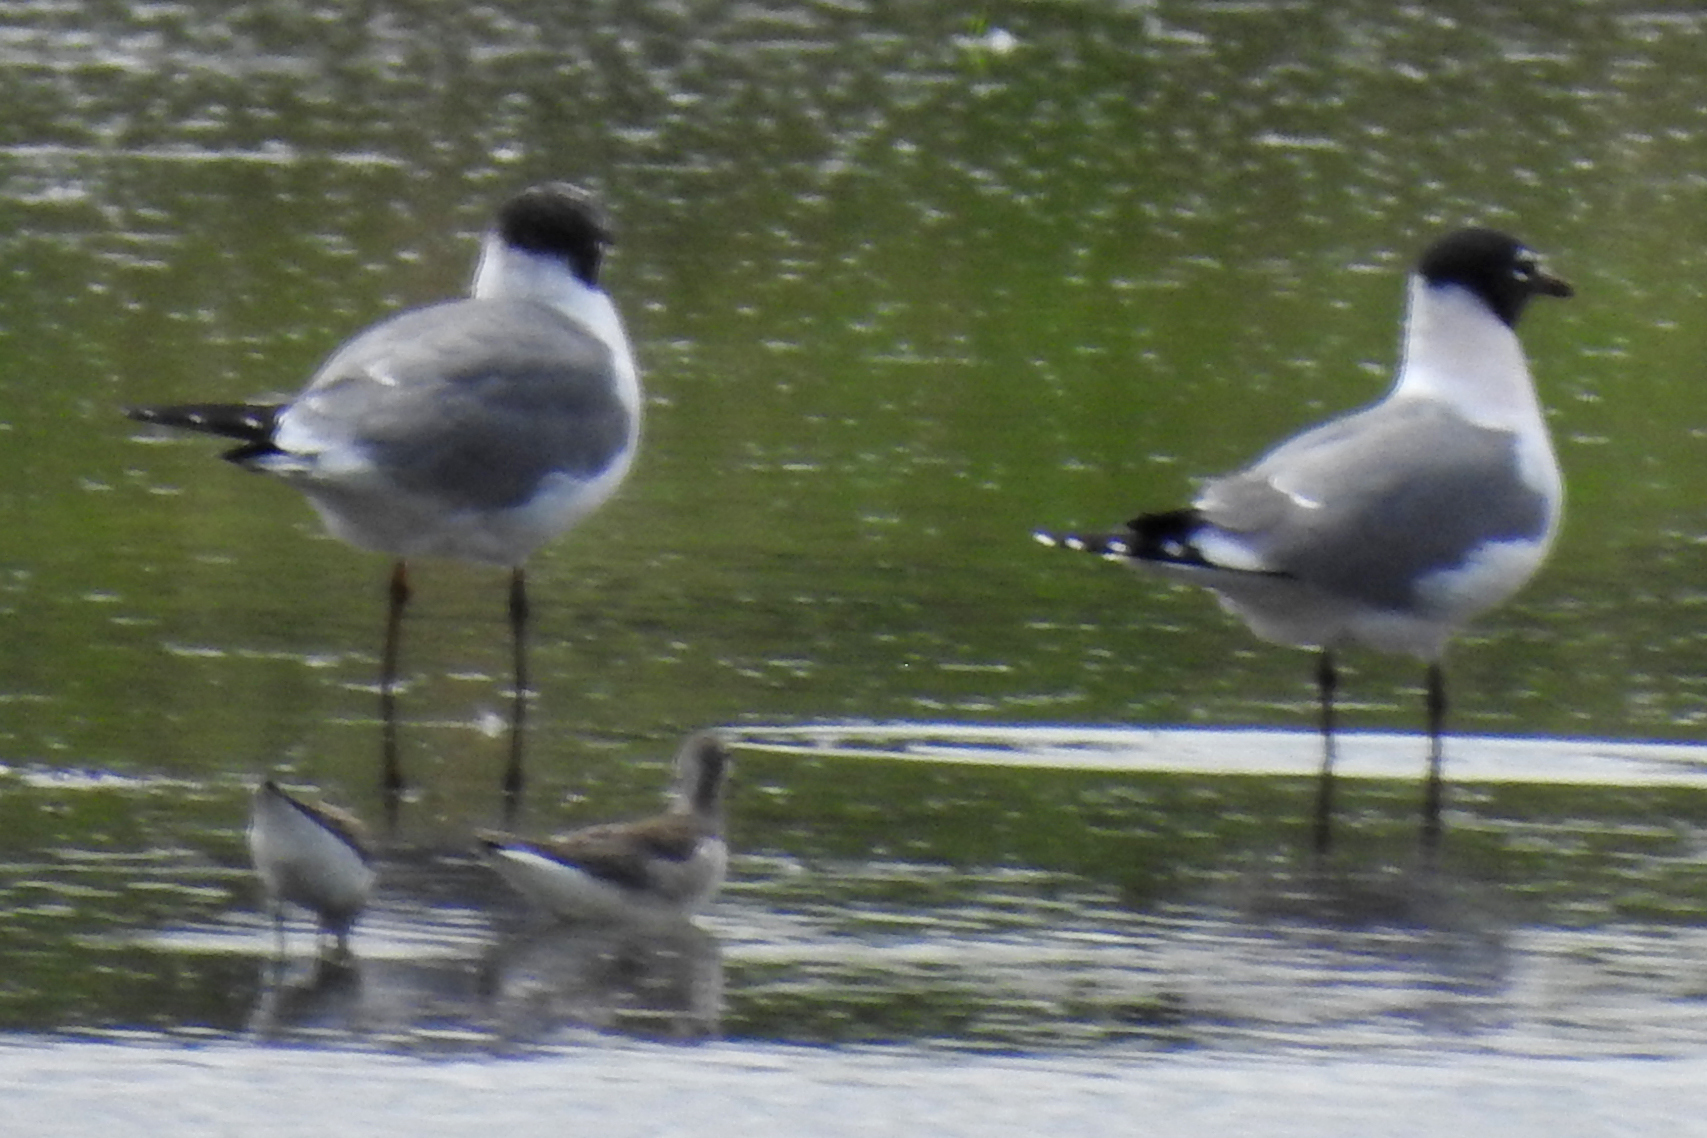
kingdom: Animalia
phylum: Chordata
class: Aves
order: Charadriiformes
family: Laridae
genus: Leucophaeus
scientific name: Leucophaeus pipixcan
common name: Franklin's gull
